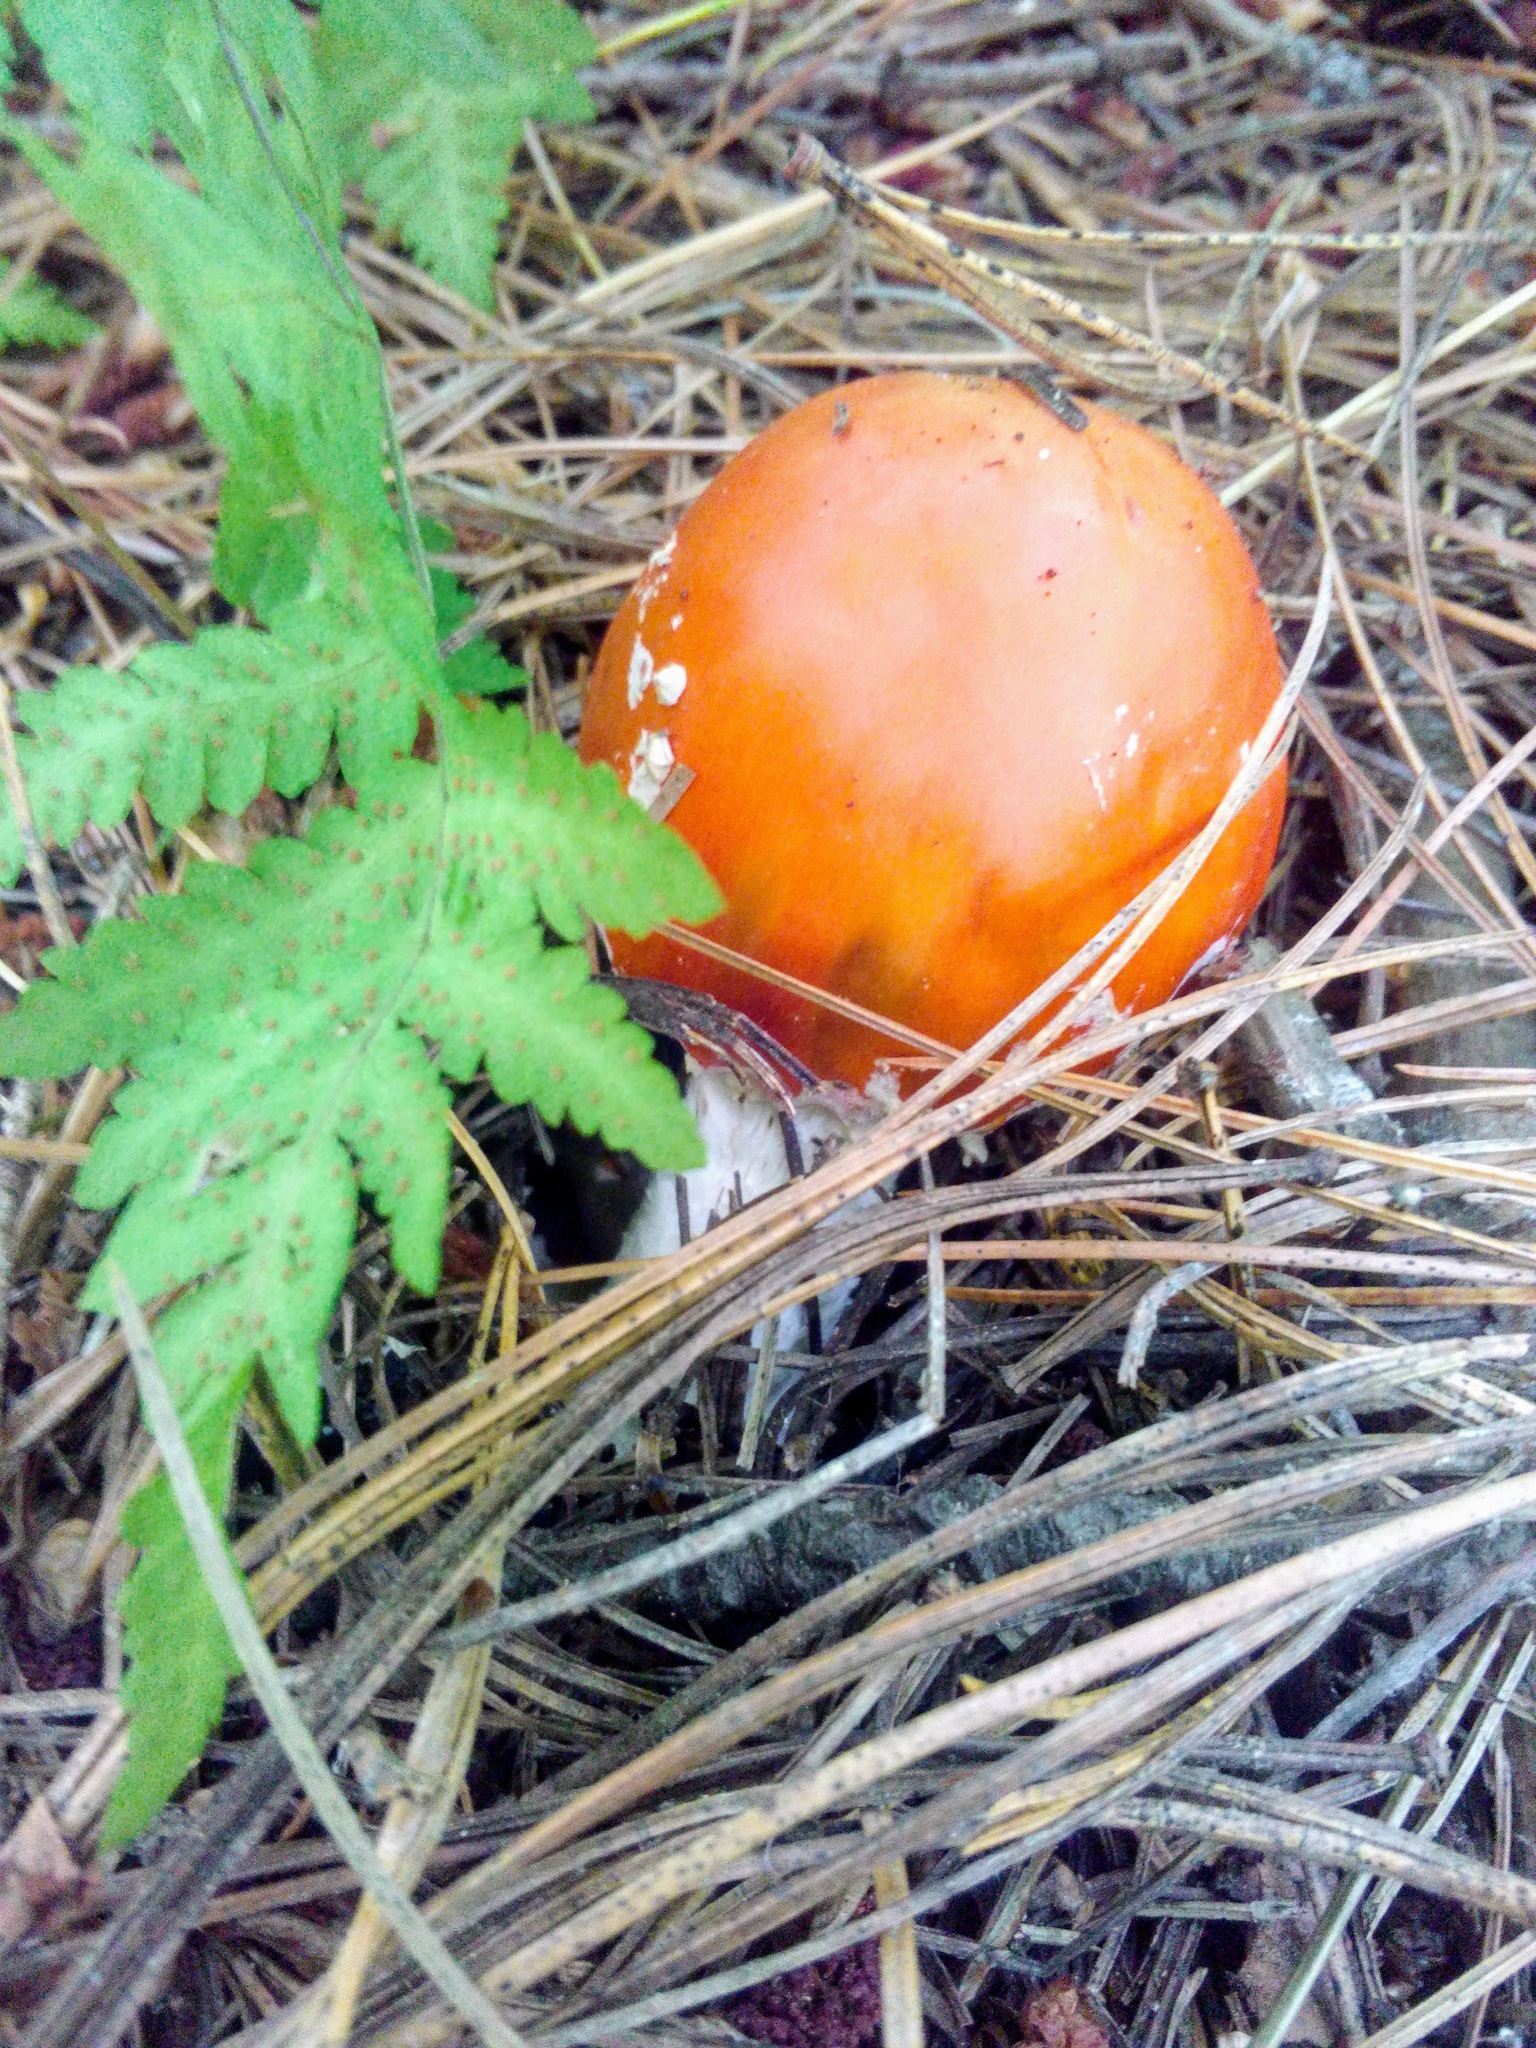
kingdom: Fungi
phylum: Basidiomycota
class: Agaricomycetes
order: Agaricales
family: Amanitaceae
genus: Amanita
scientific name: Amanita muscaria
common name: Fly agaric
